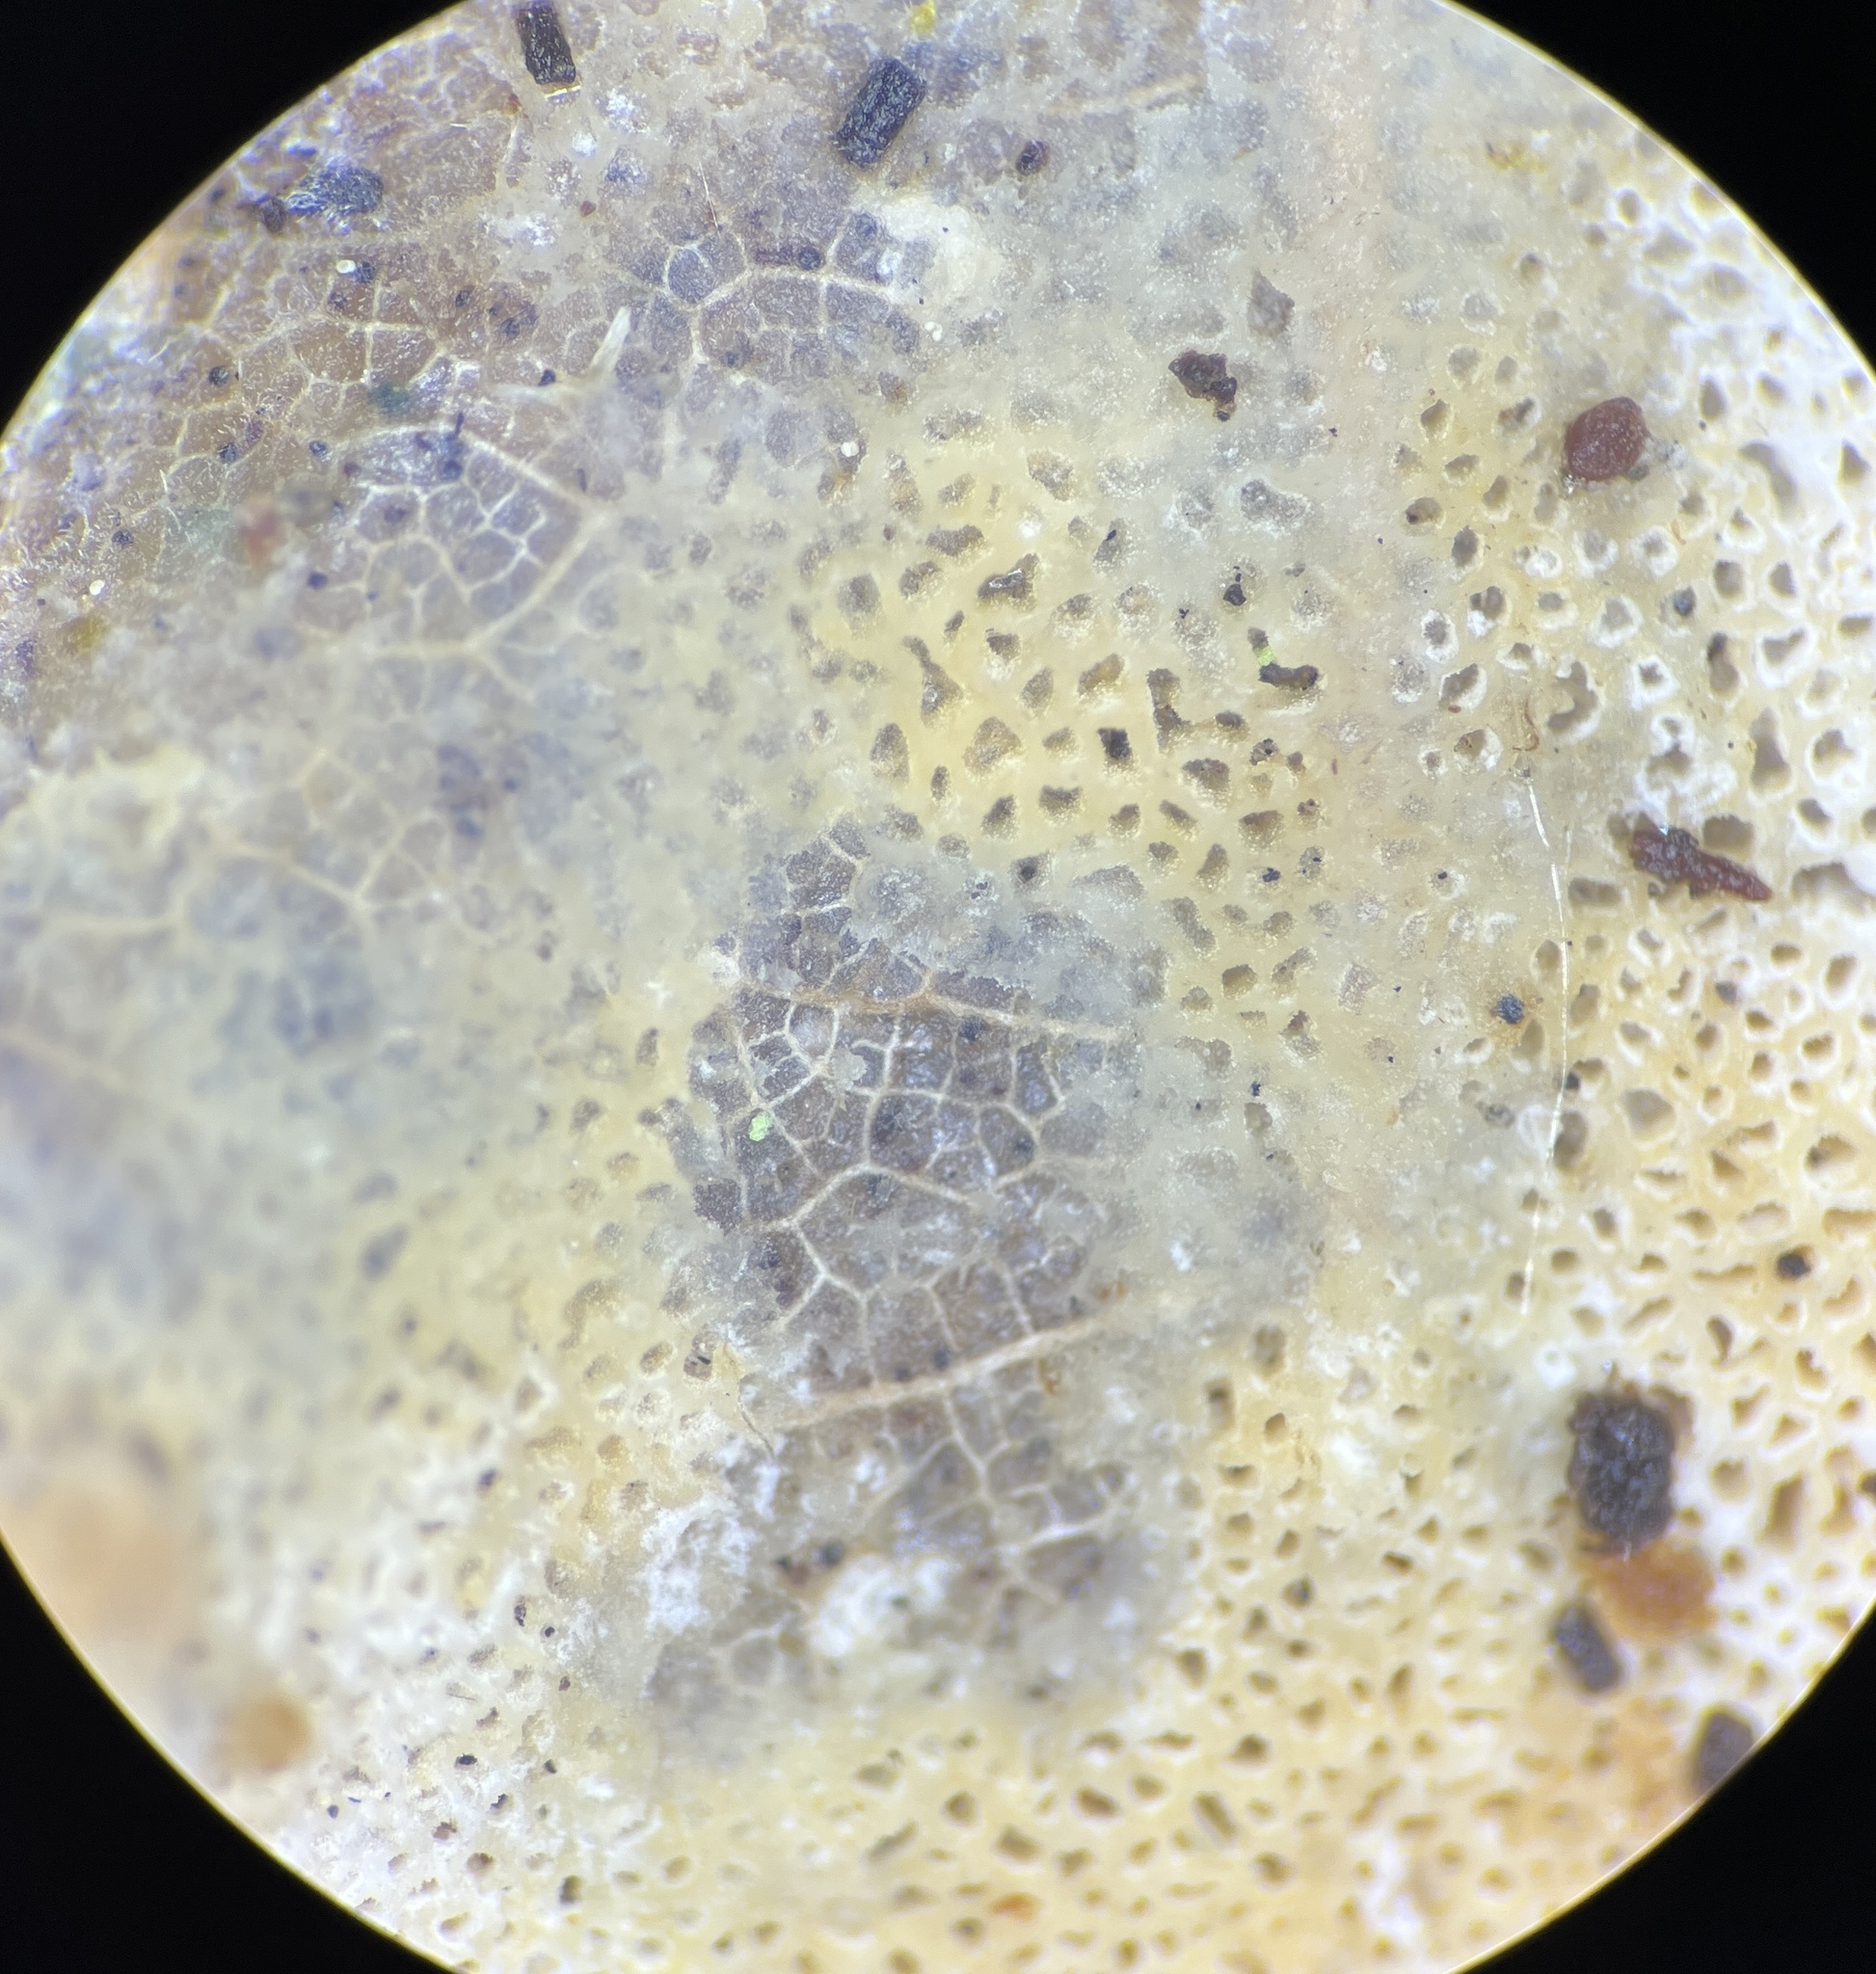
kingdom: Fungi
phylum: Basidiomycota
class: Agaricomycetes
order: Hymenochaetales
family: Schizoporaceae
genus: Xylodon
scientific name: Xylodon flaviporus
